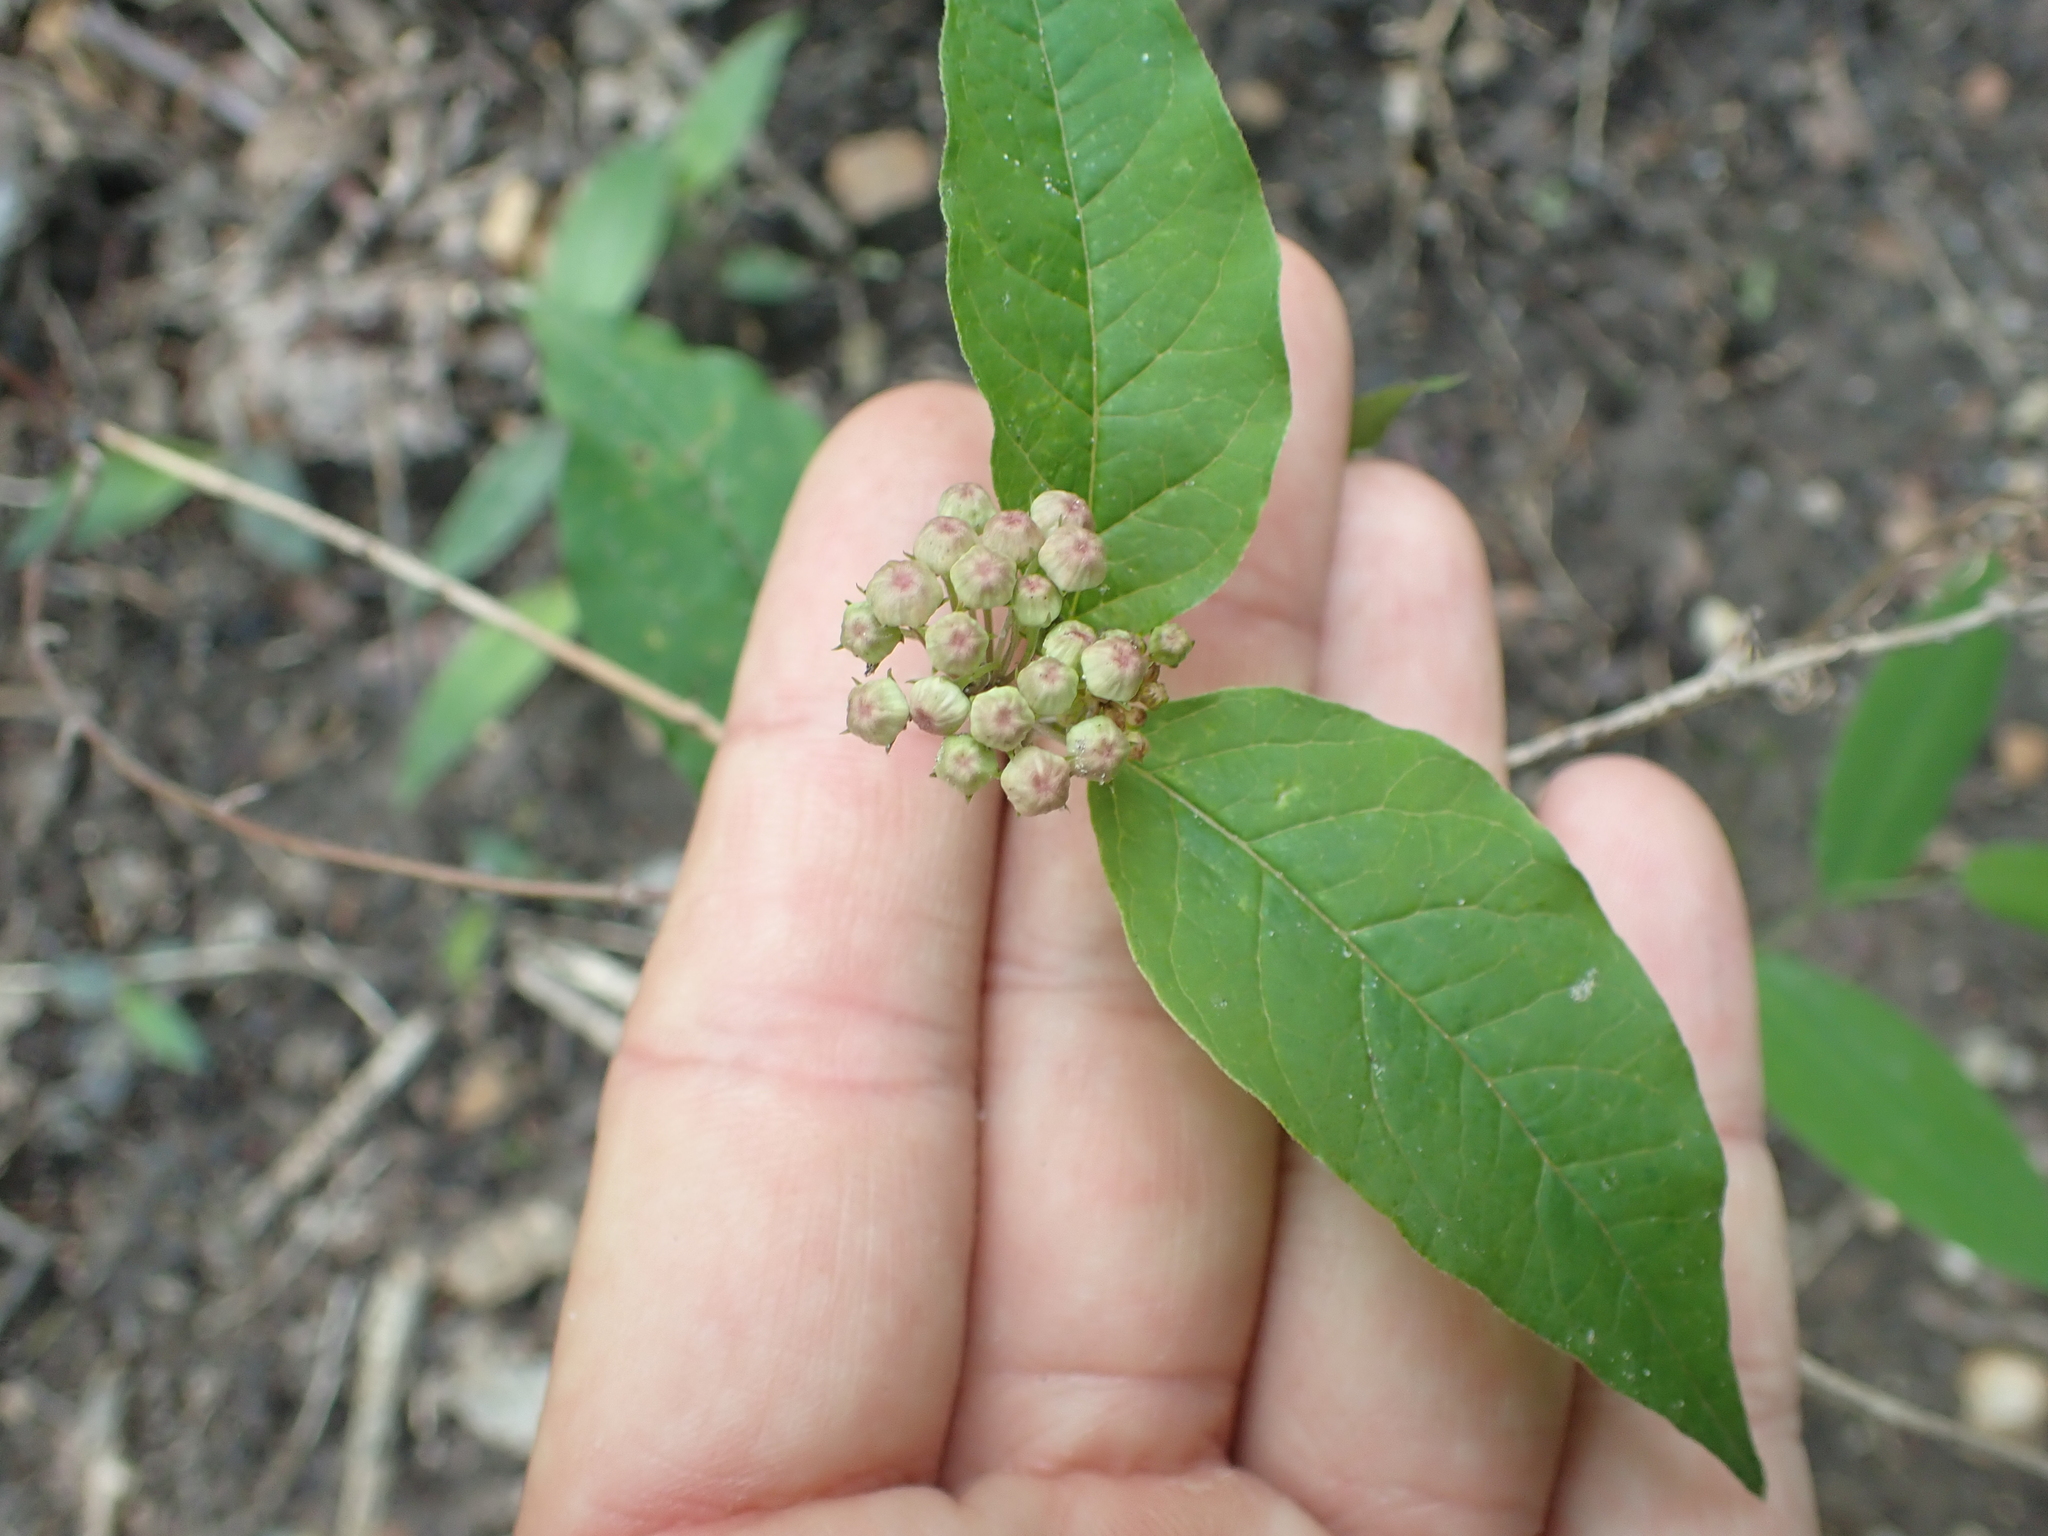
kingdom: Plantae
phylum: Tracheophyta
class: Magnoliopsida
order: Gentianales
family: Apocynaceae
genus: Asclepias
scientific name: Asclepias quadrifolia
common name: Whorled milkweed
